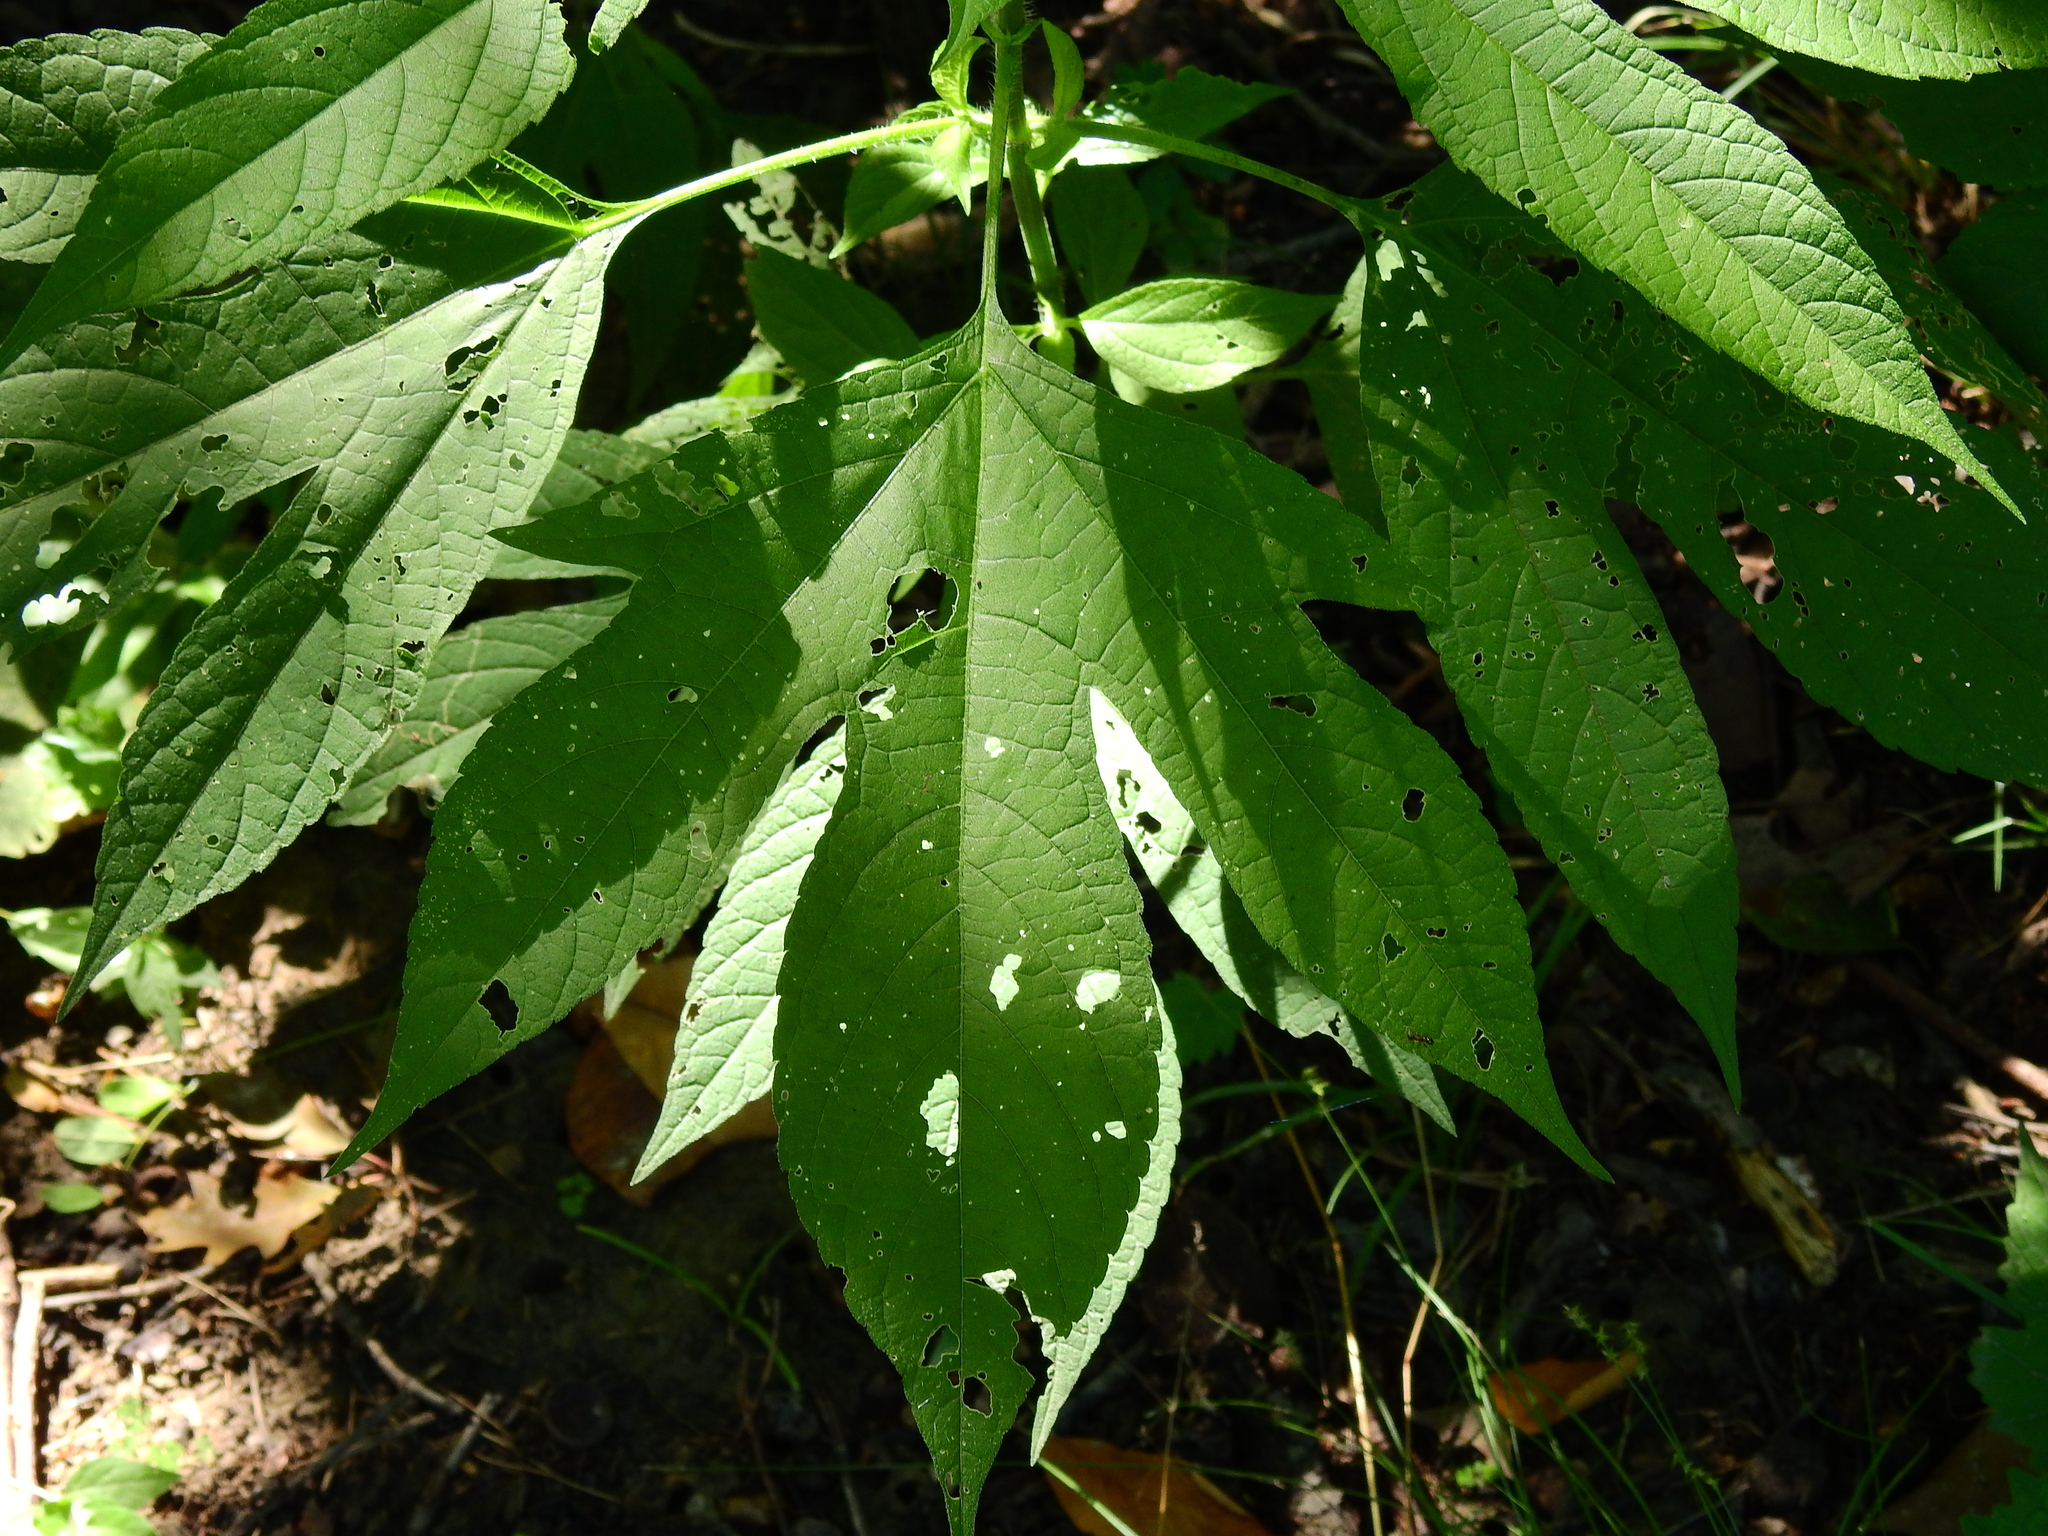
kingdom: Plantae
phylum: Tracheophyta
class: Magnoliopsida
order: Asterales
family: Asteraceae
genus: Ambrosia
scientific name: Ambrosia trifida
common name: Giant ragweed
